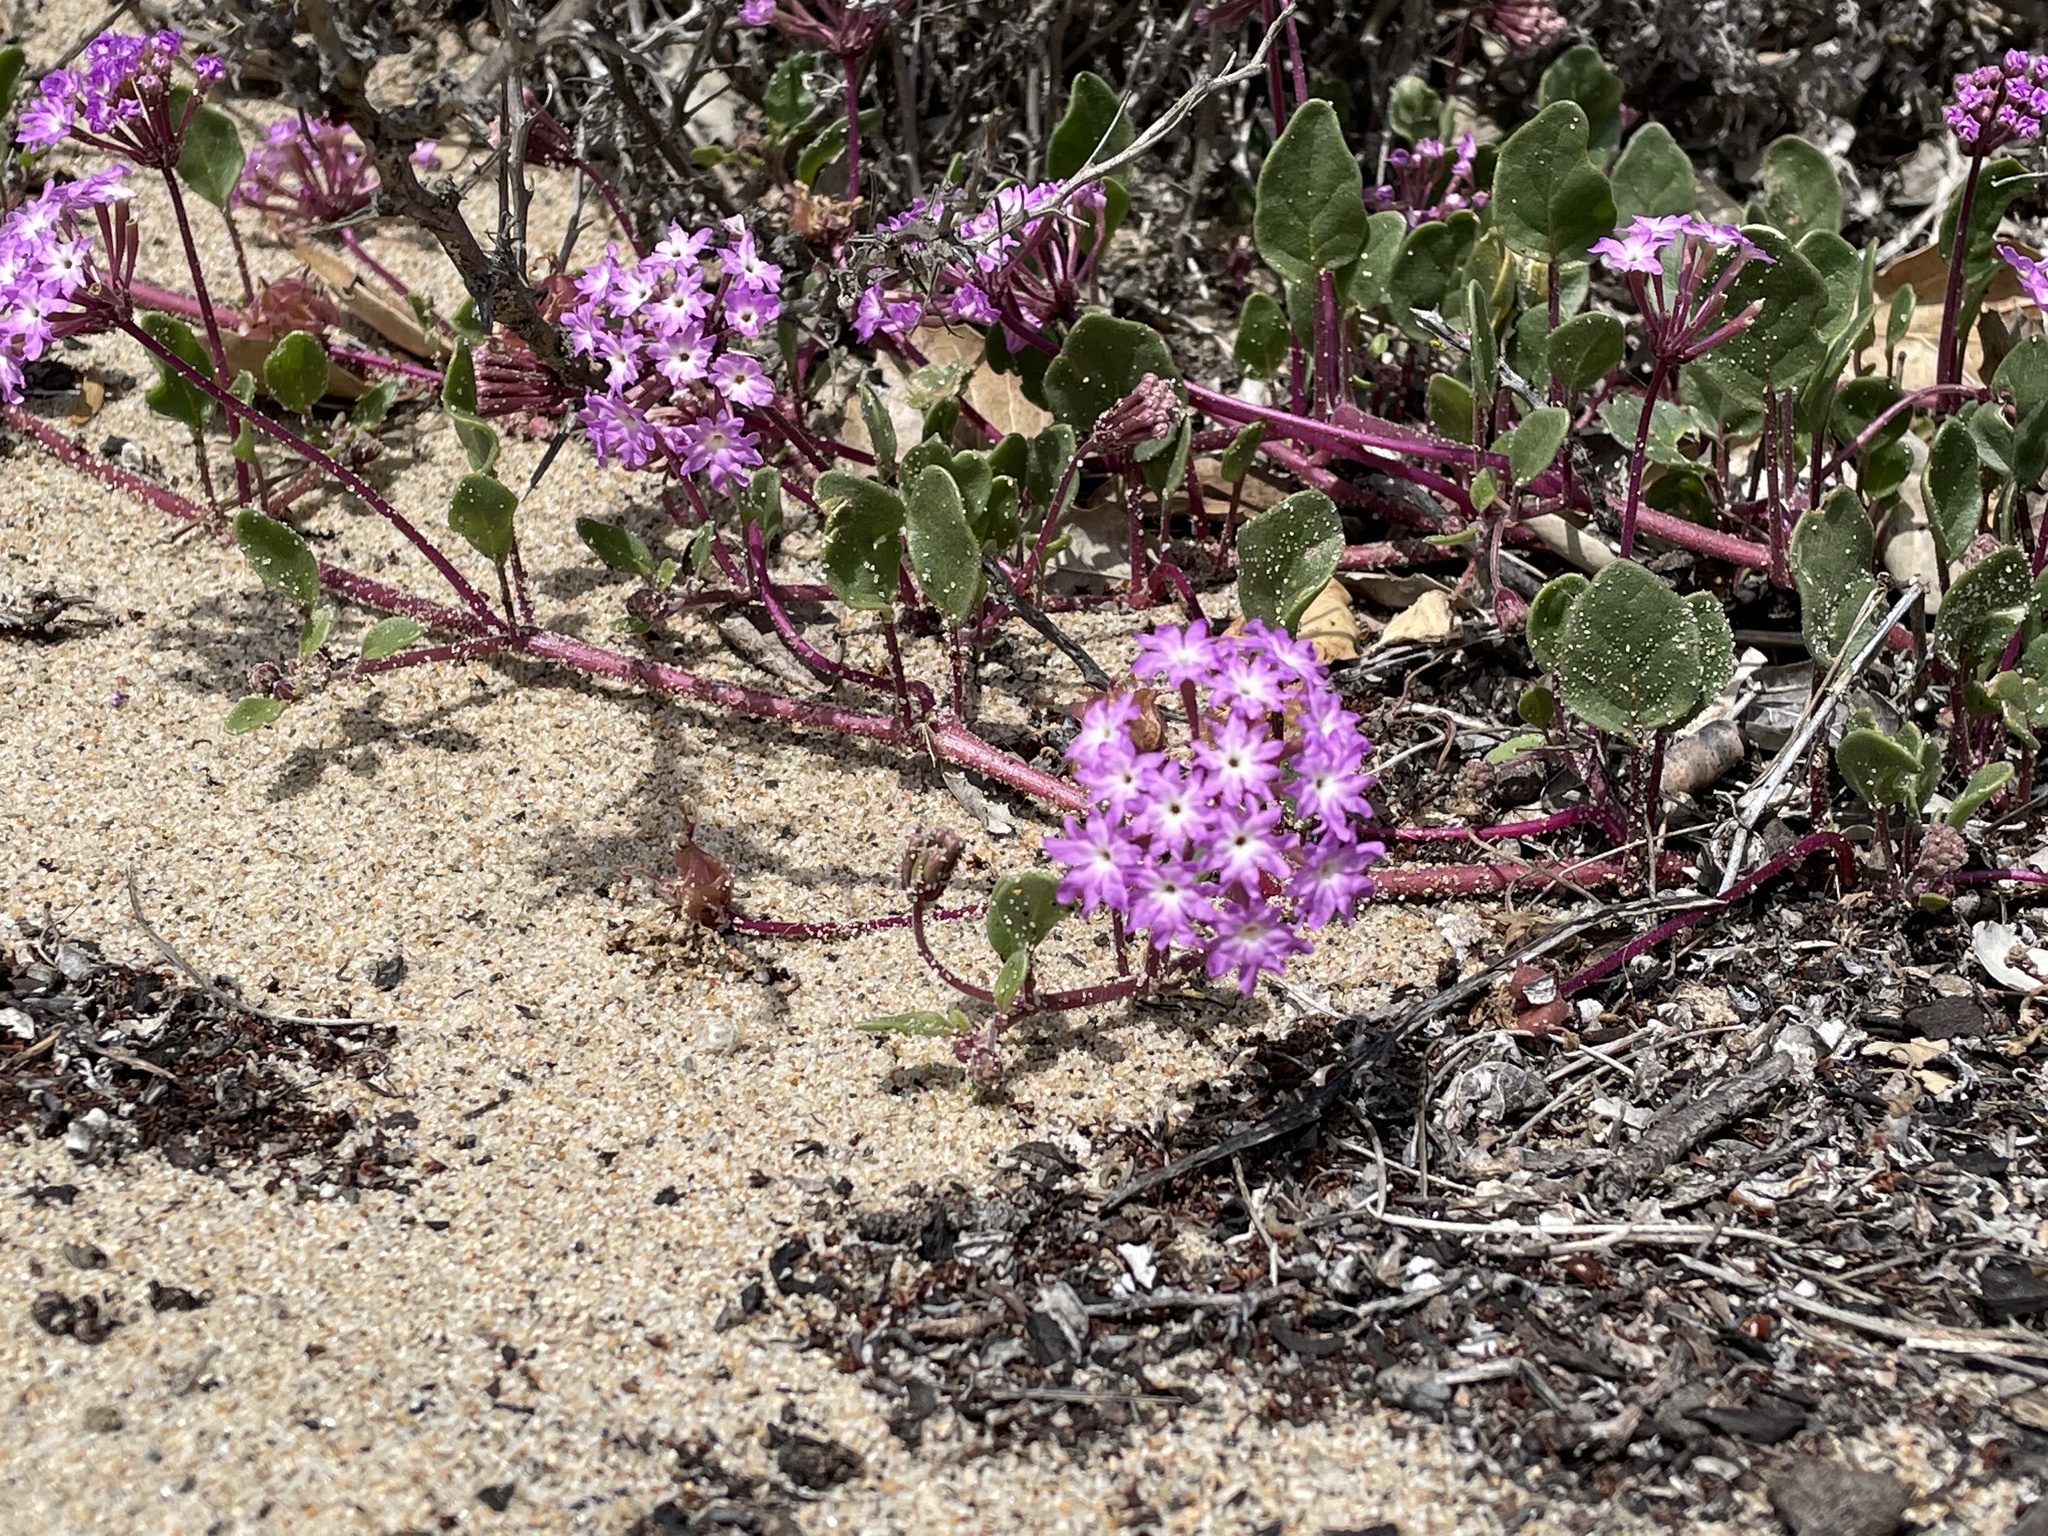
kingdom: Plantae
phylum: Tracheophyta
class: Magnoliopsida
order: Caryophyllales
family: Nyctaginaceae
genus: Abronia
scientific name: Abronia umbellata
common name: Sand-verbena
